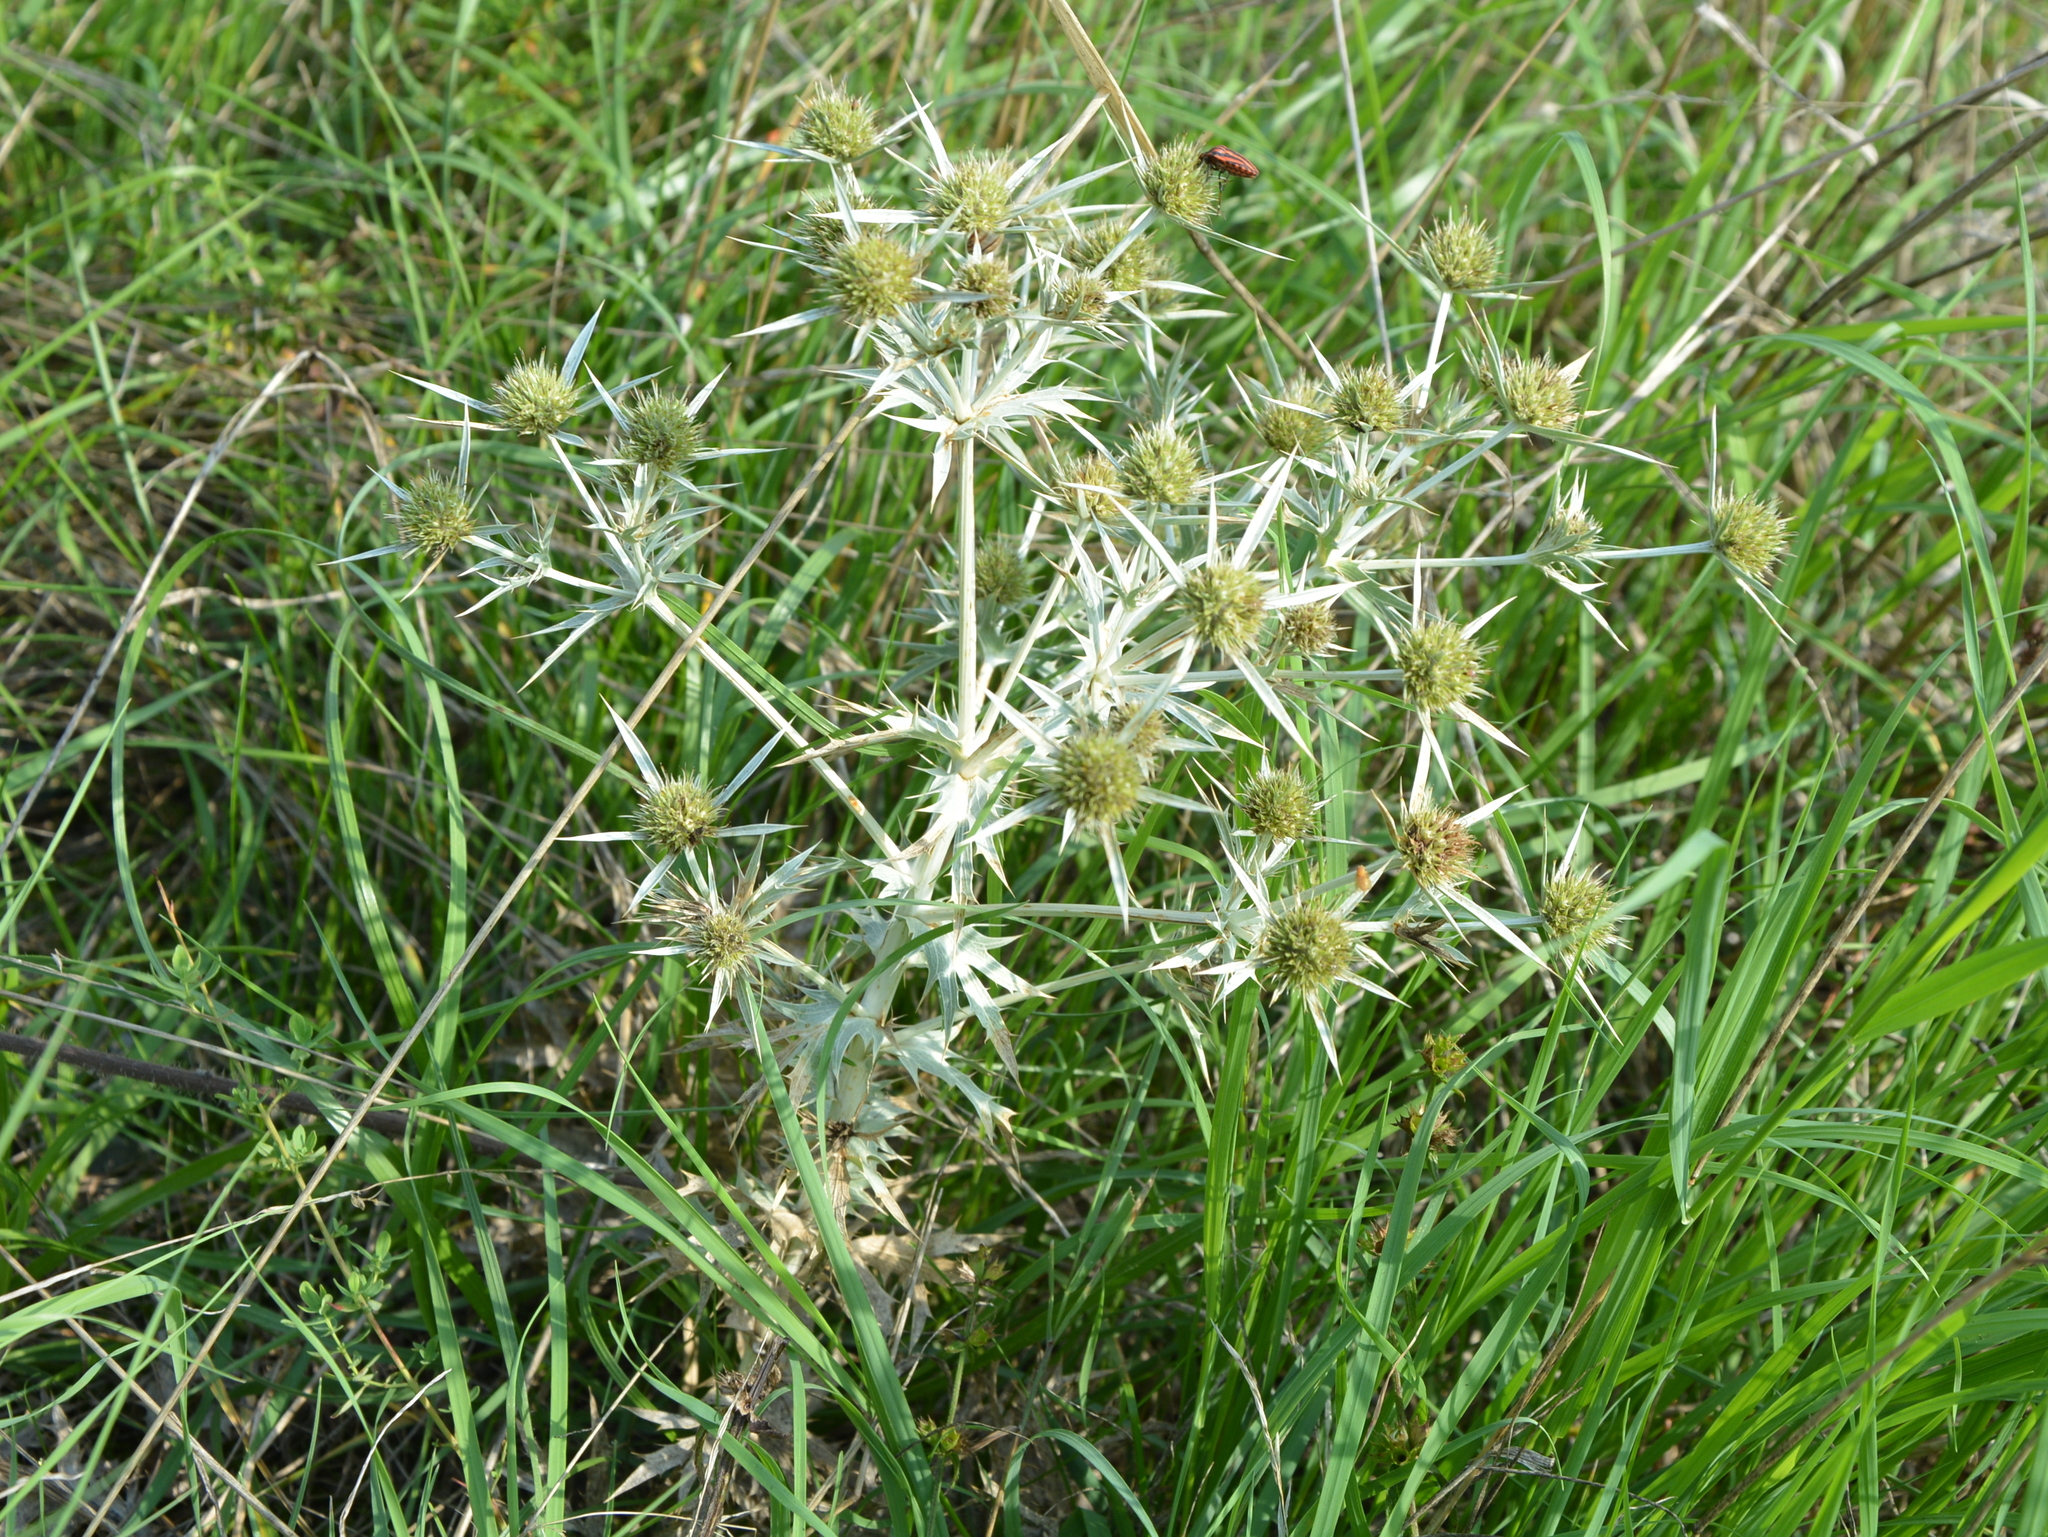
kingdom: Plantae
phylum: Tracheophyta
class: Magnoliopsida
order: Apiales
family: Apiaceae
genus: Eryngium
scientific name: Eryngium campestre
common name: Field eryngo
